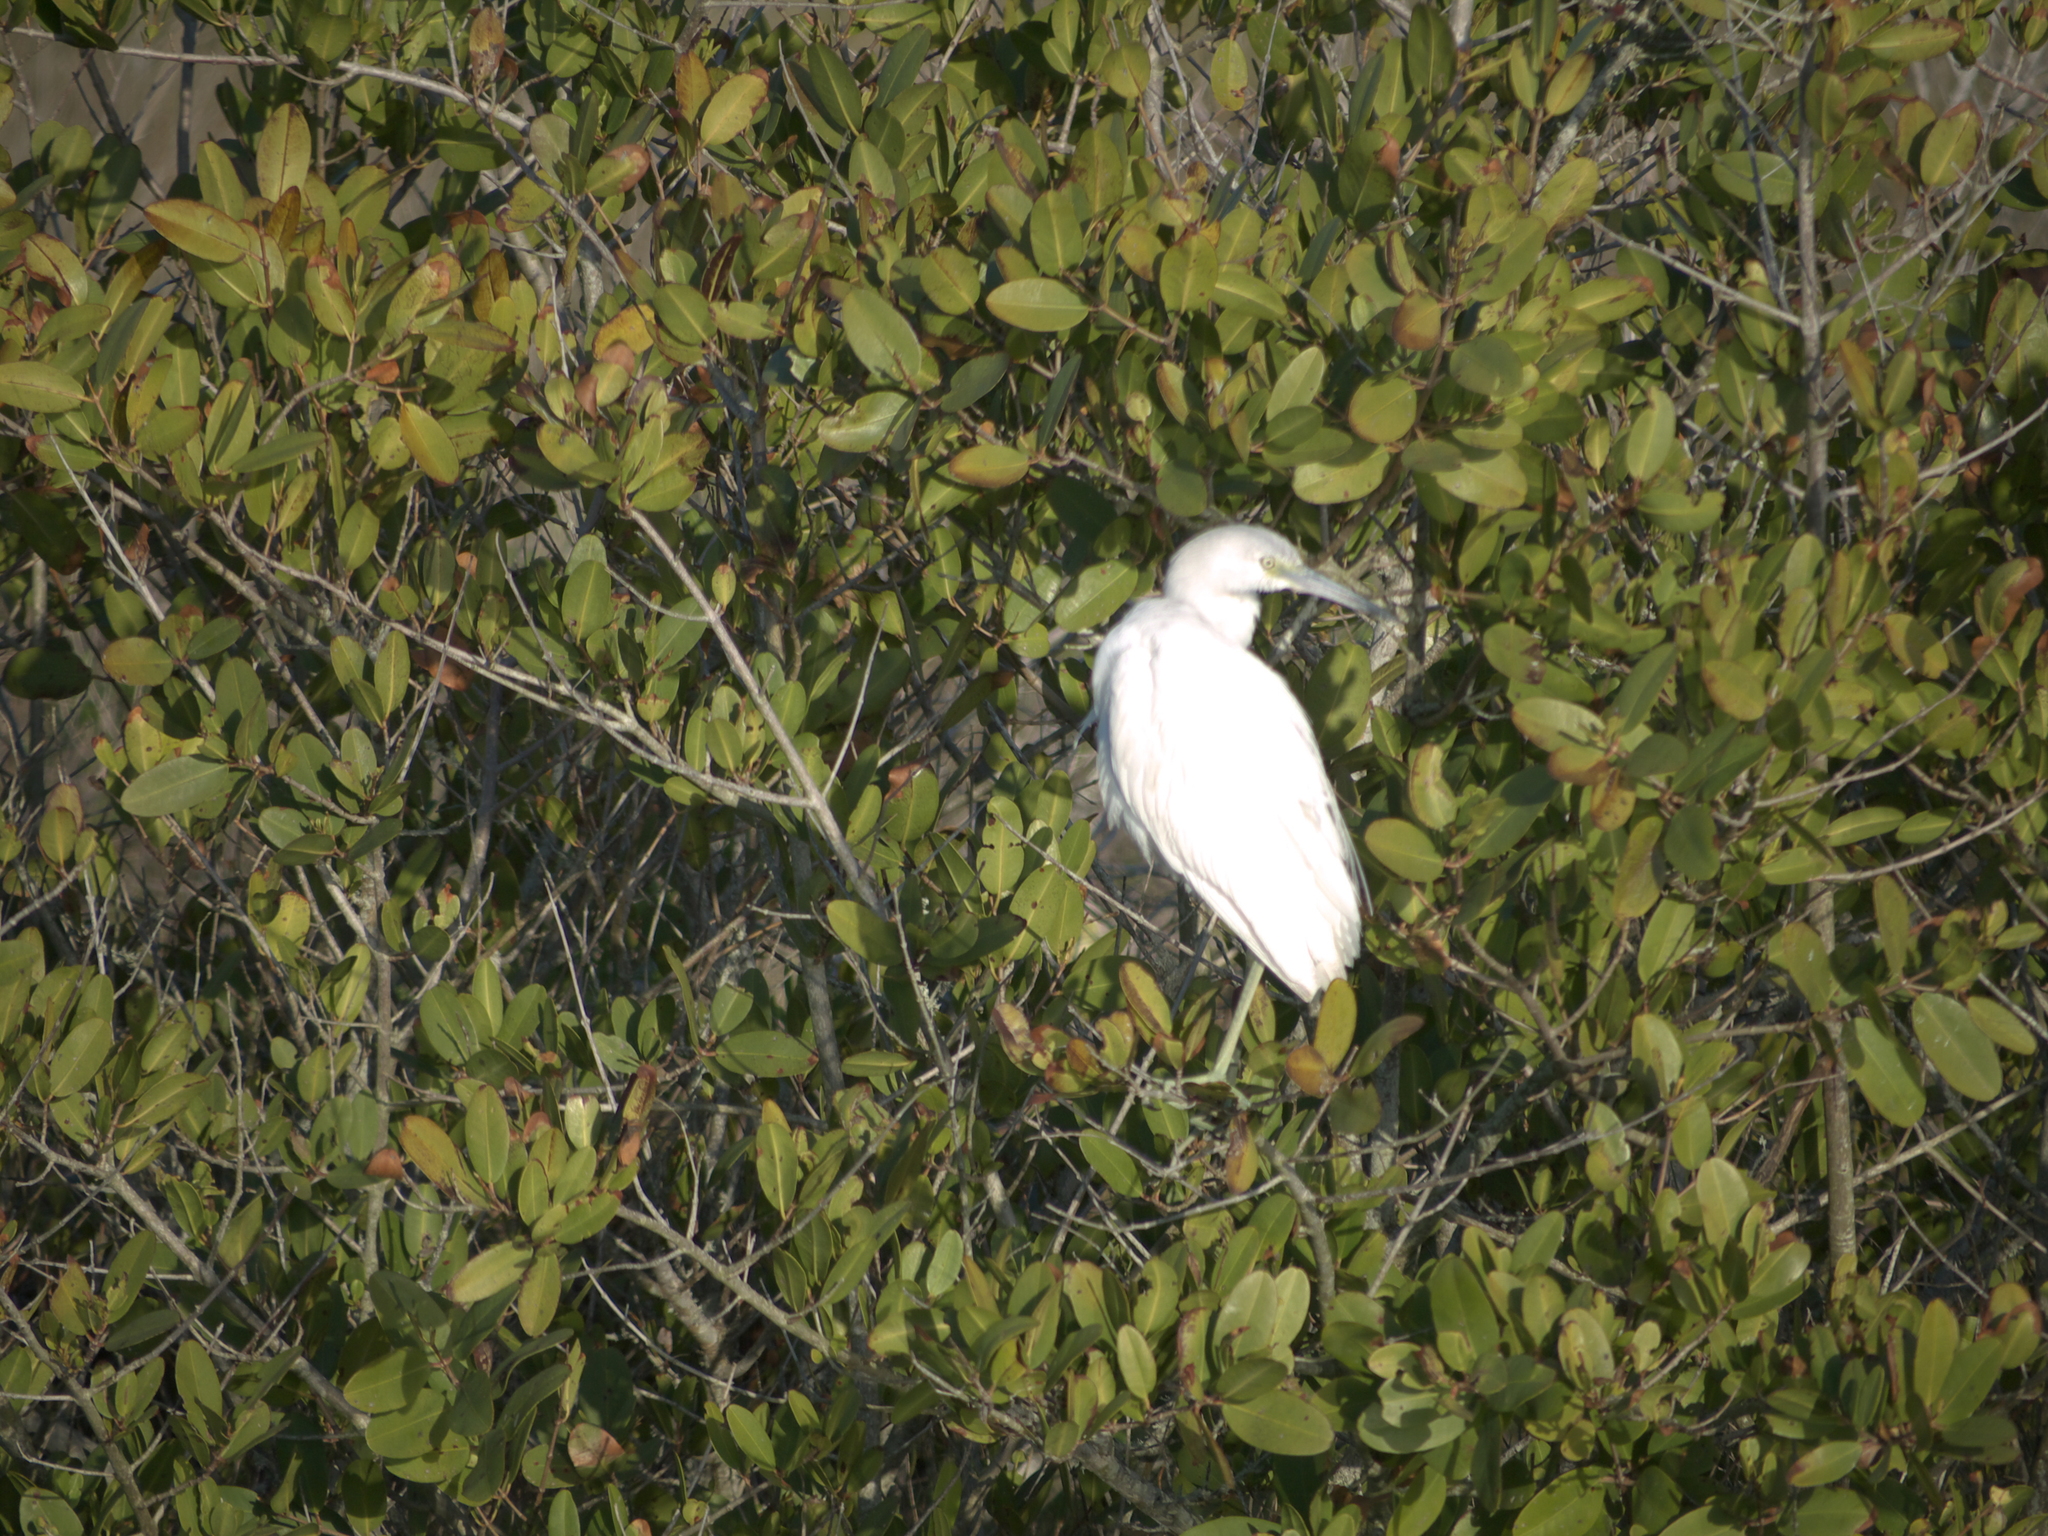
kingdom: Animalia
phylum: Chordata
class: Aves
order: Pelecaniformes
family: Ardeidae
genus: Egretta
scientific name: Egretta caerulea
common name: Little blue heron
